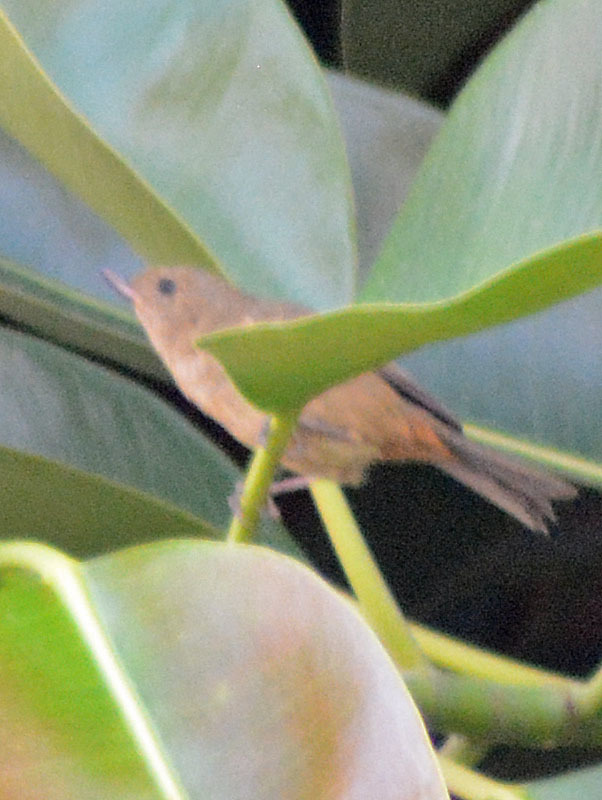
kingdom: Animalia
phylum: Chordata
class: Aves
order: Passeriformes
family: Thraupidae
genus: Diglossa
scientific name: Diglossa baritula
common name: Cinnamon-bellied flowerpiercer
